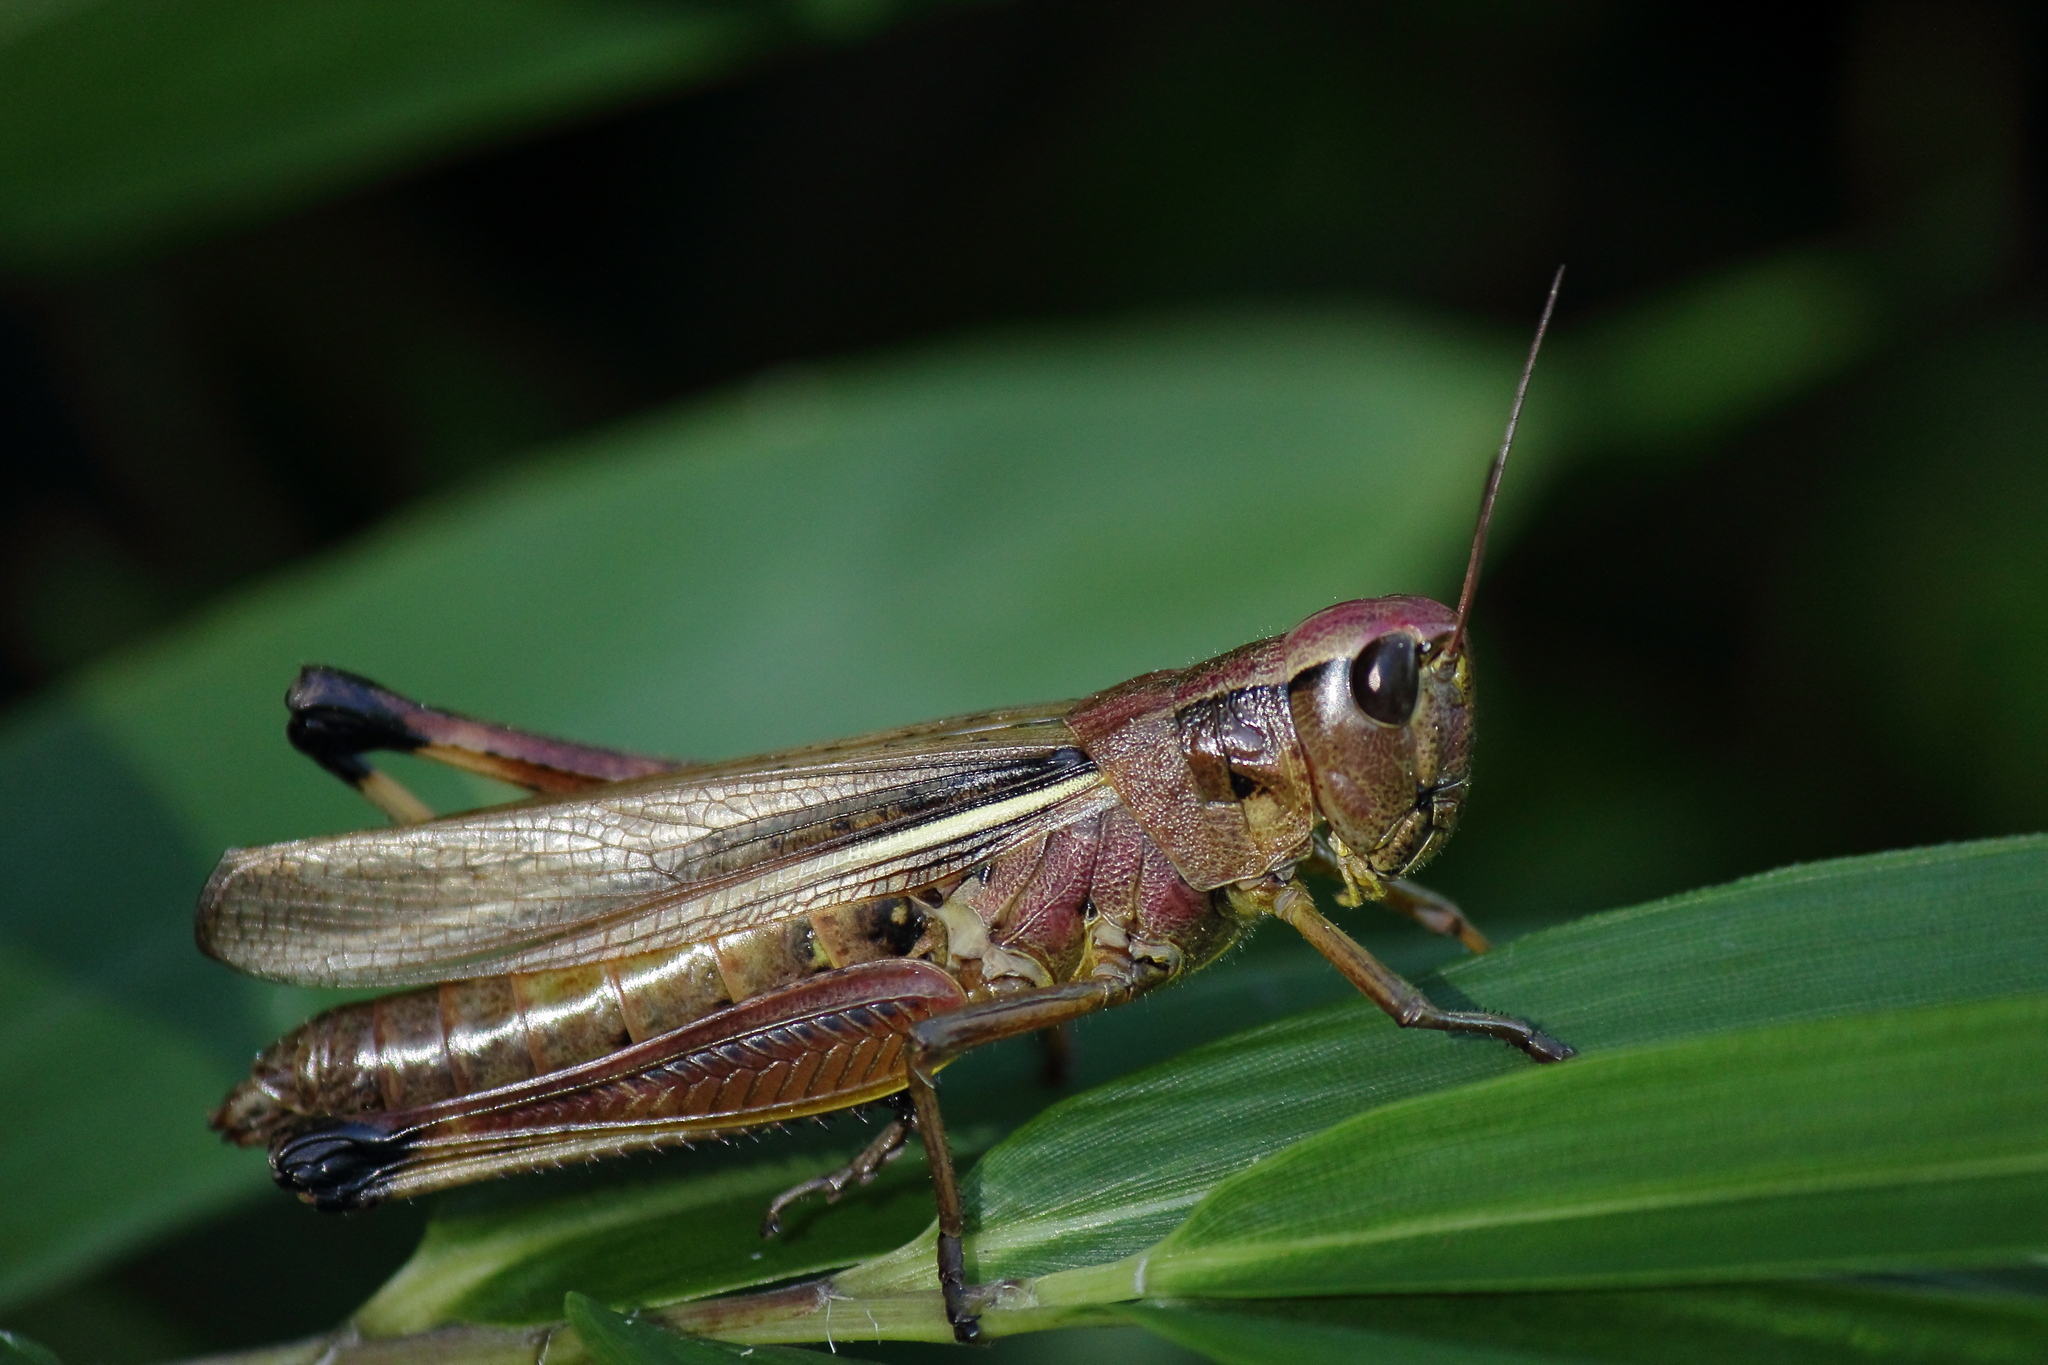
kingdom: Animalia
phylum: Arthropoda
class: Insecta
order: Orthoptera
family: Acrididae
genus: Stethophyma
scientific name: Stethophyma magister
